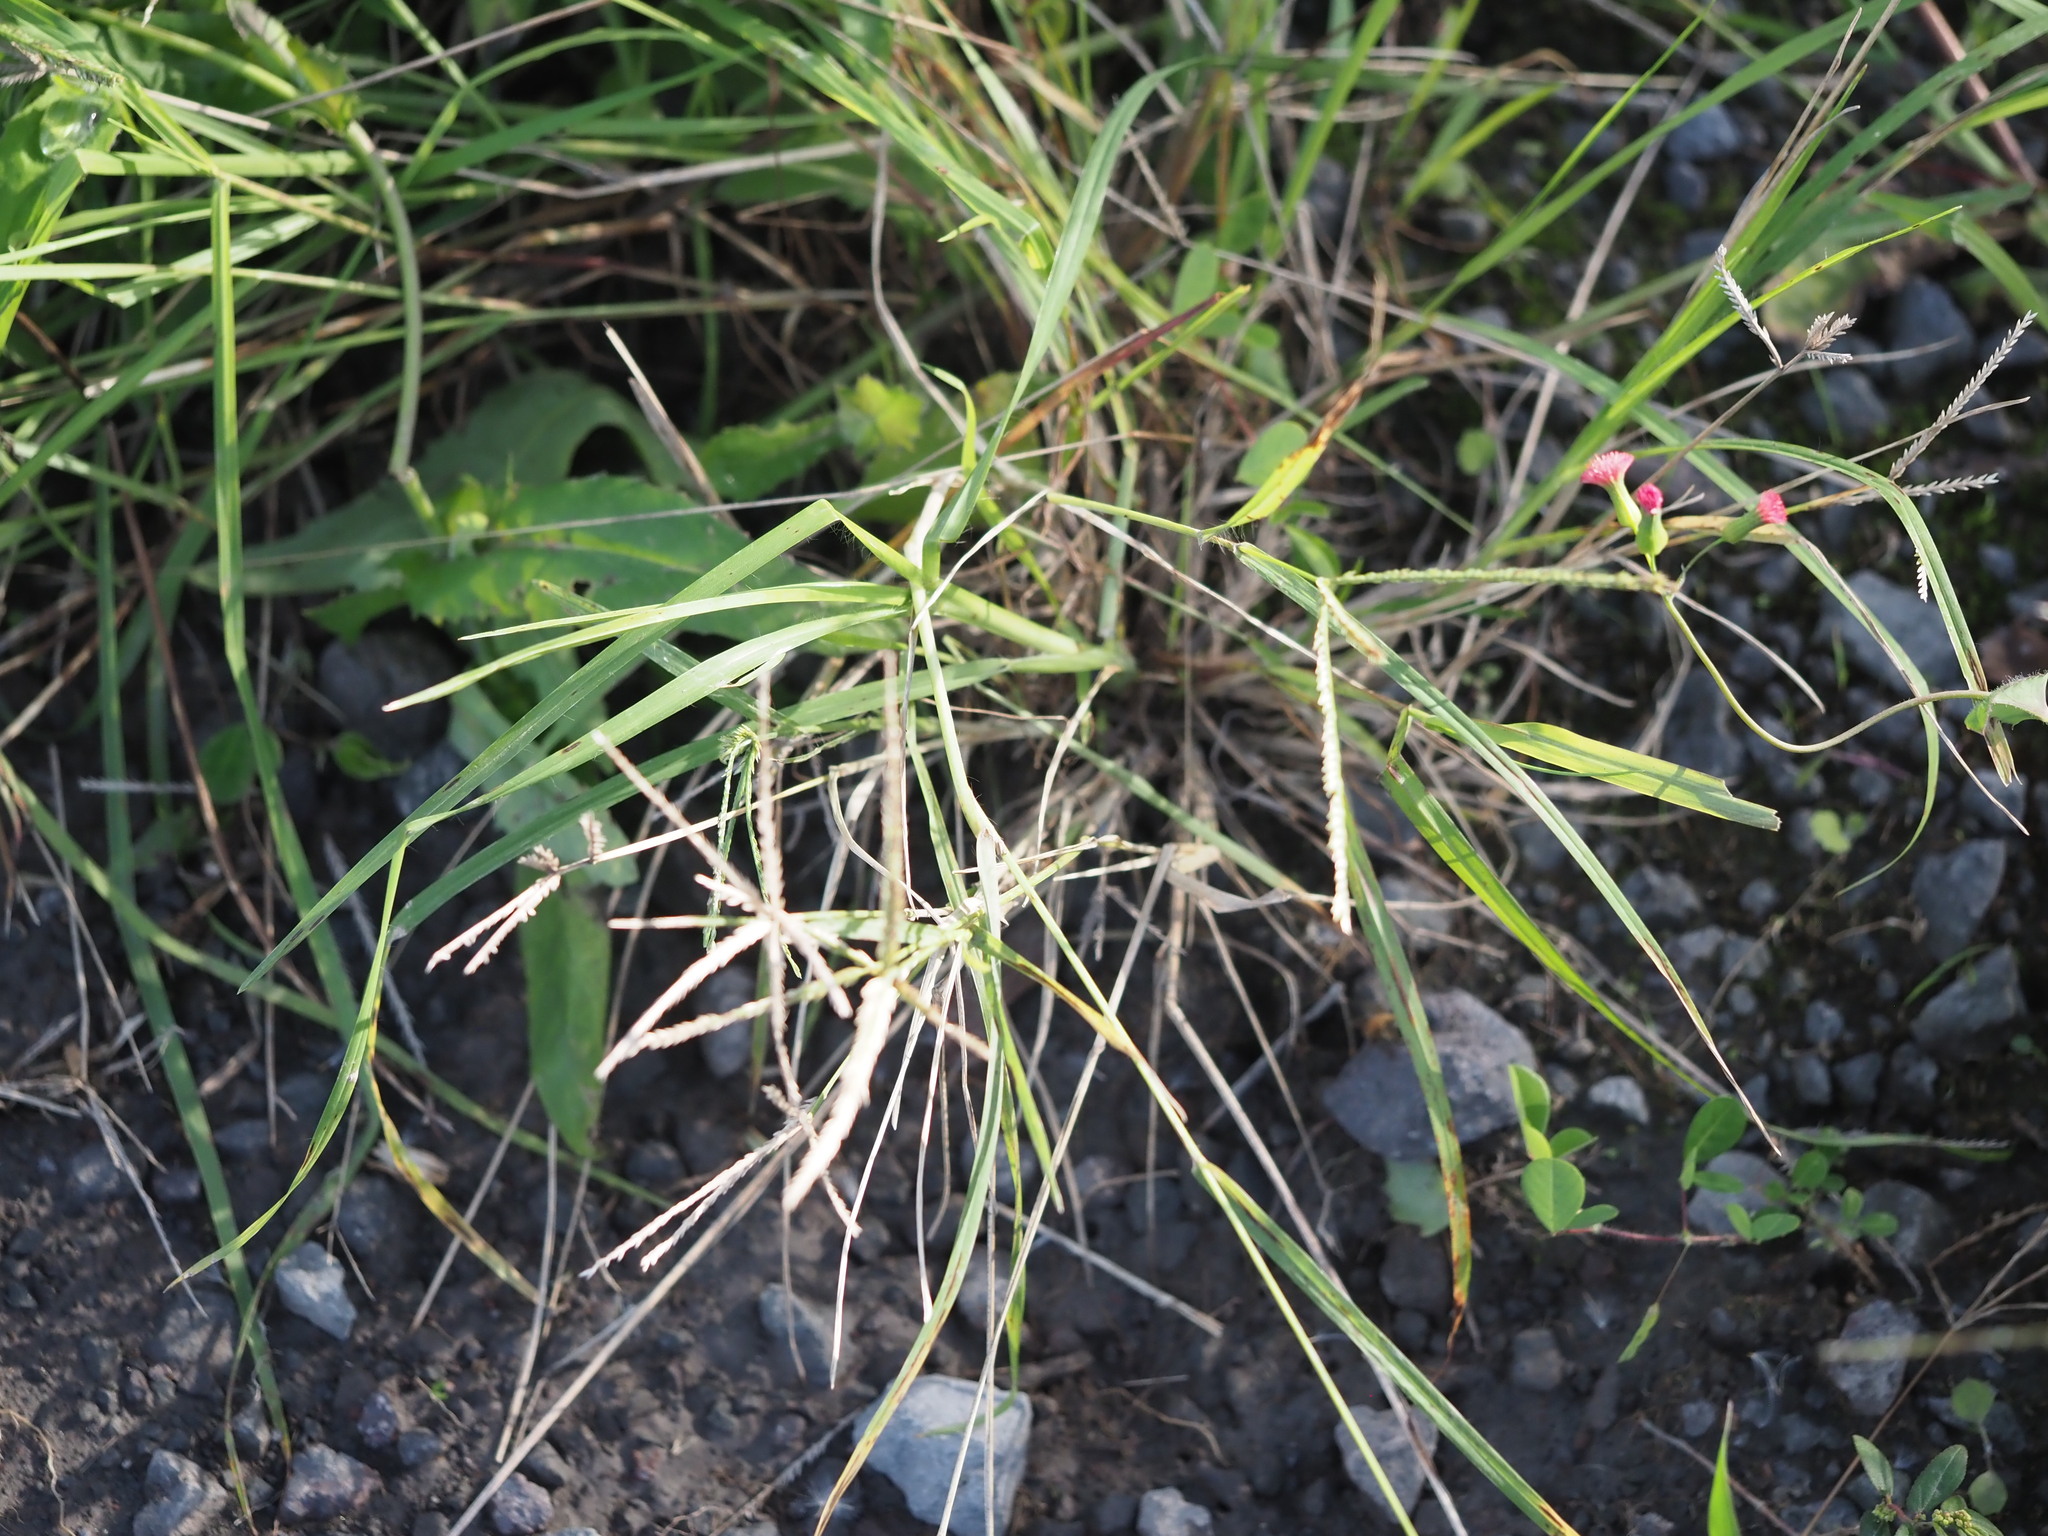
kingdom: Plantae
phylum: Tracheophyta
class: Liliopsida
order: Poales
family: Poaceae
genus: Eleusine
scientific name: Eleusine indica
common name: Yard-grass
